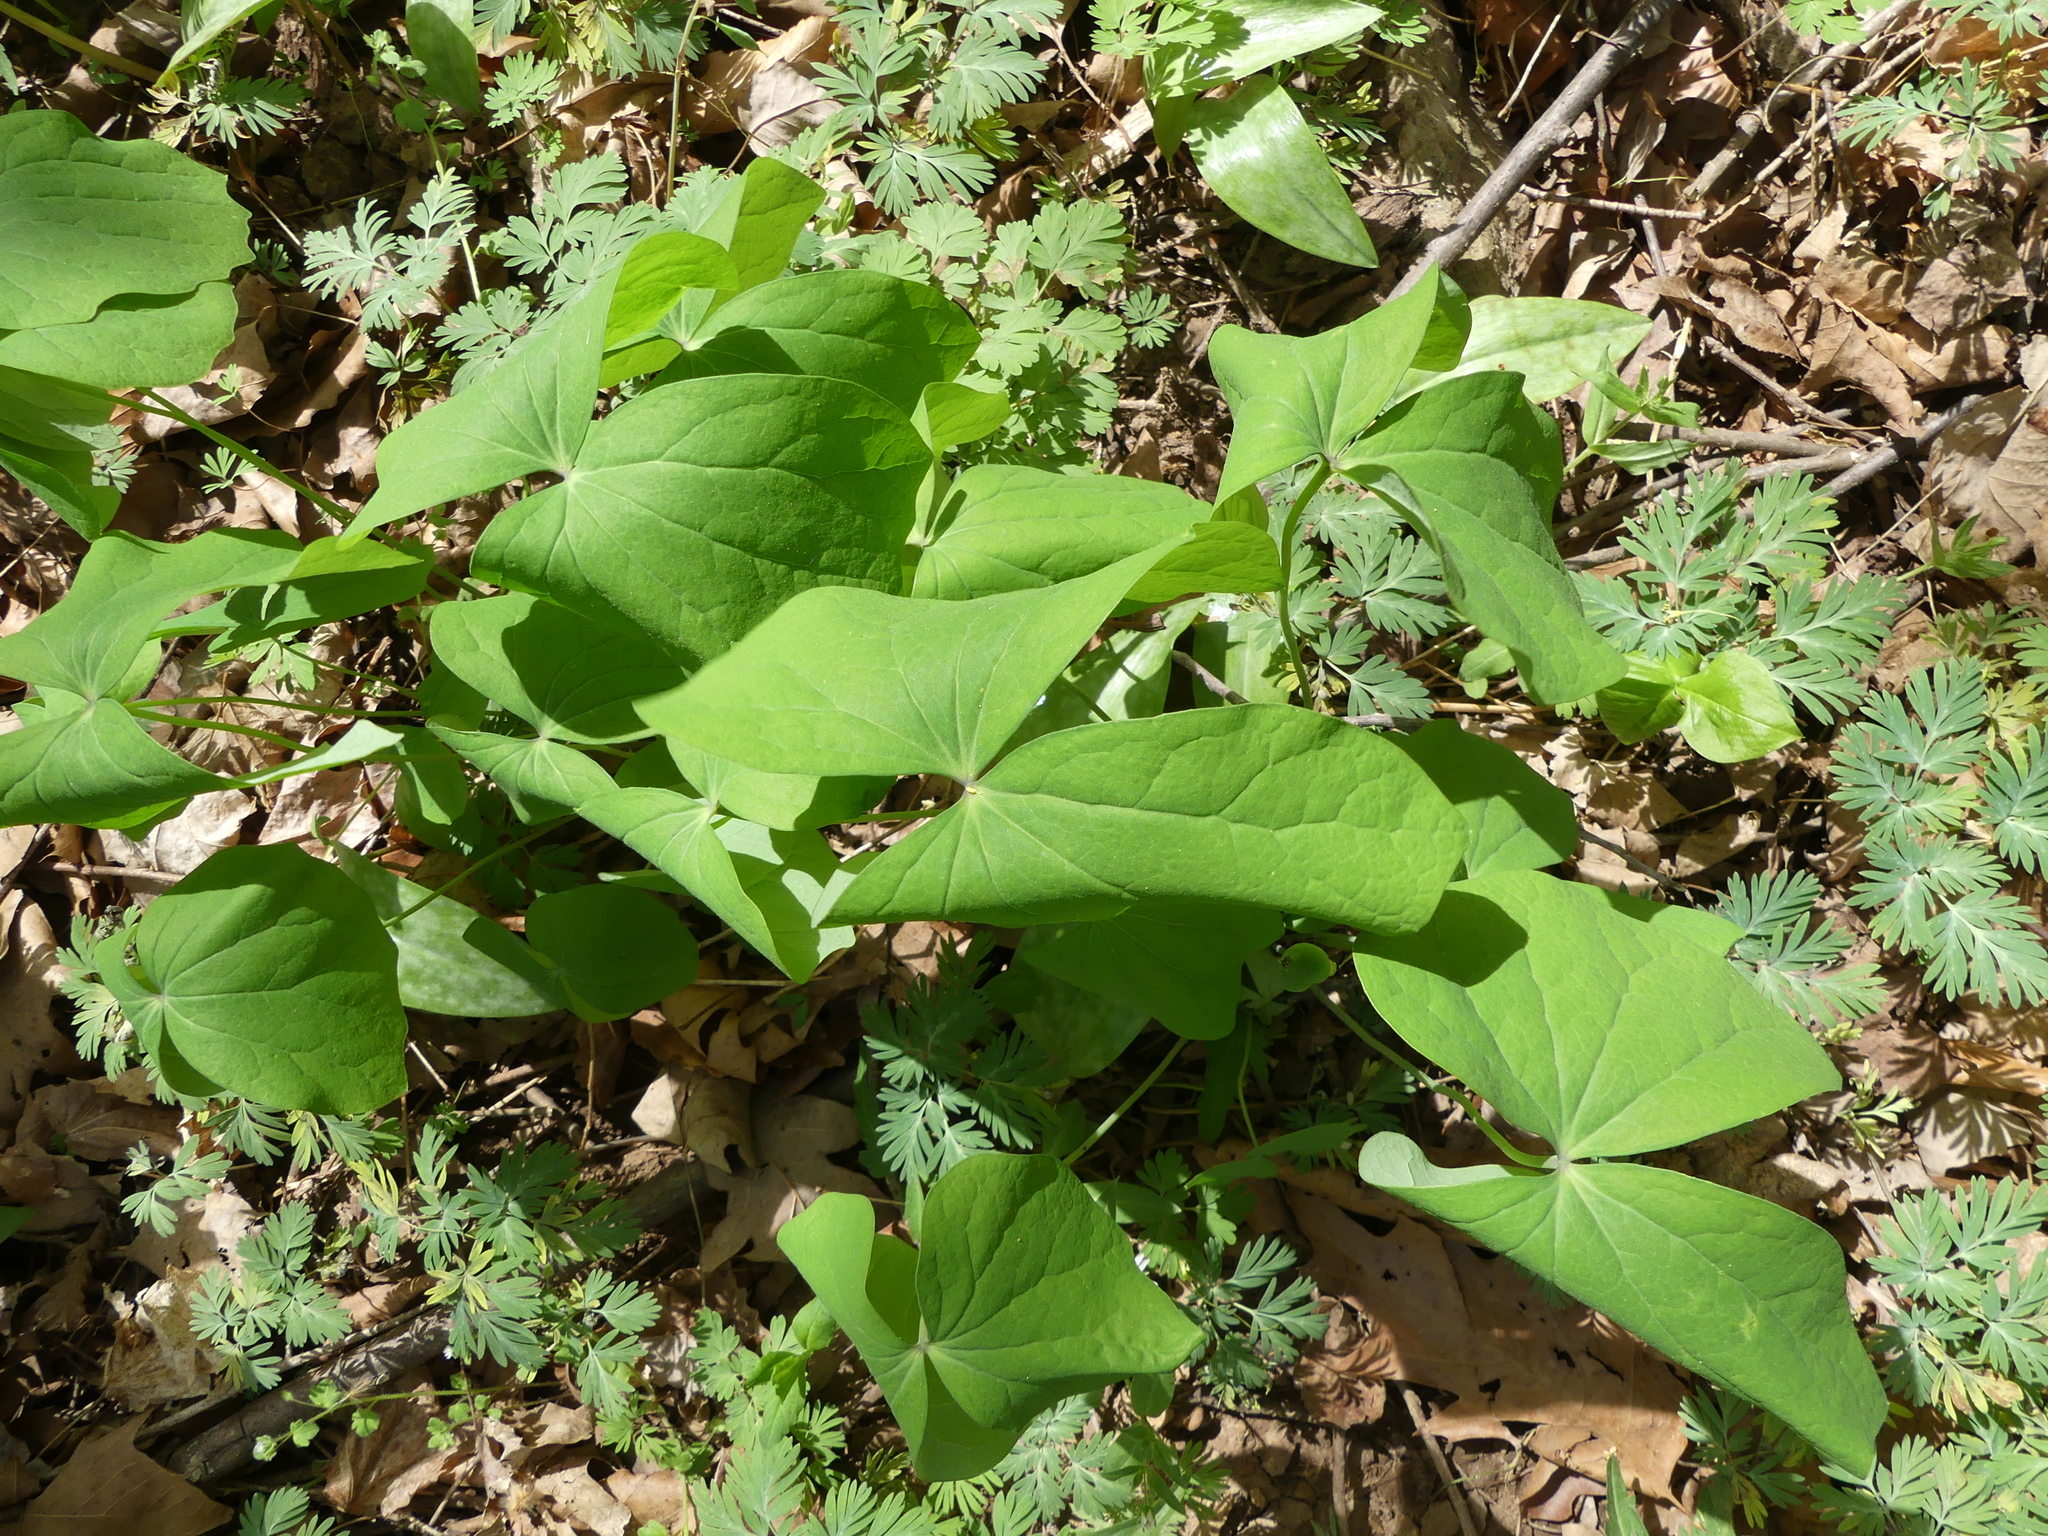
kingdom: Plantae
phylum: Tracheophyta
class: Magnoliopsida
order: Ranunculales
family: Berberidaceae
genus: Jeffersonia
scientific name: Jeffersonia diphylla
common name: Rheumatism-root
